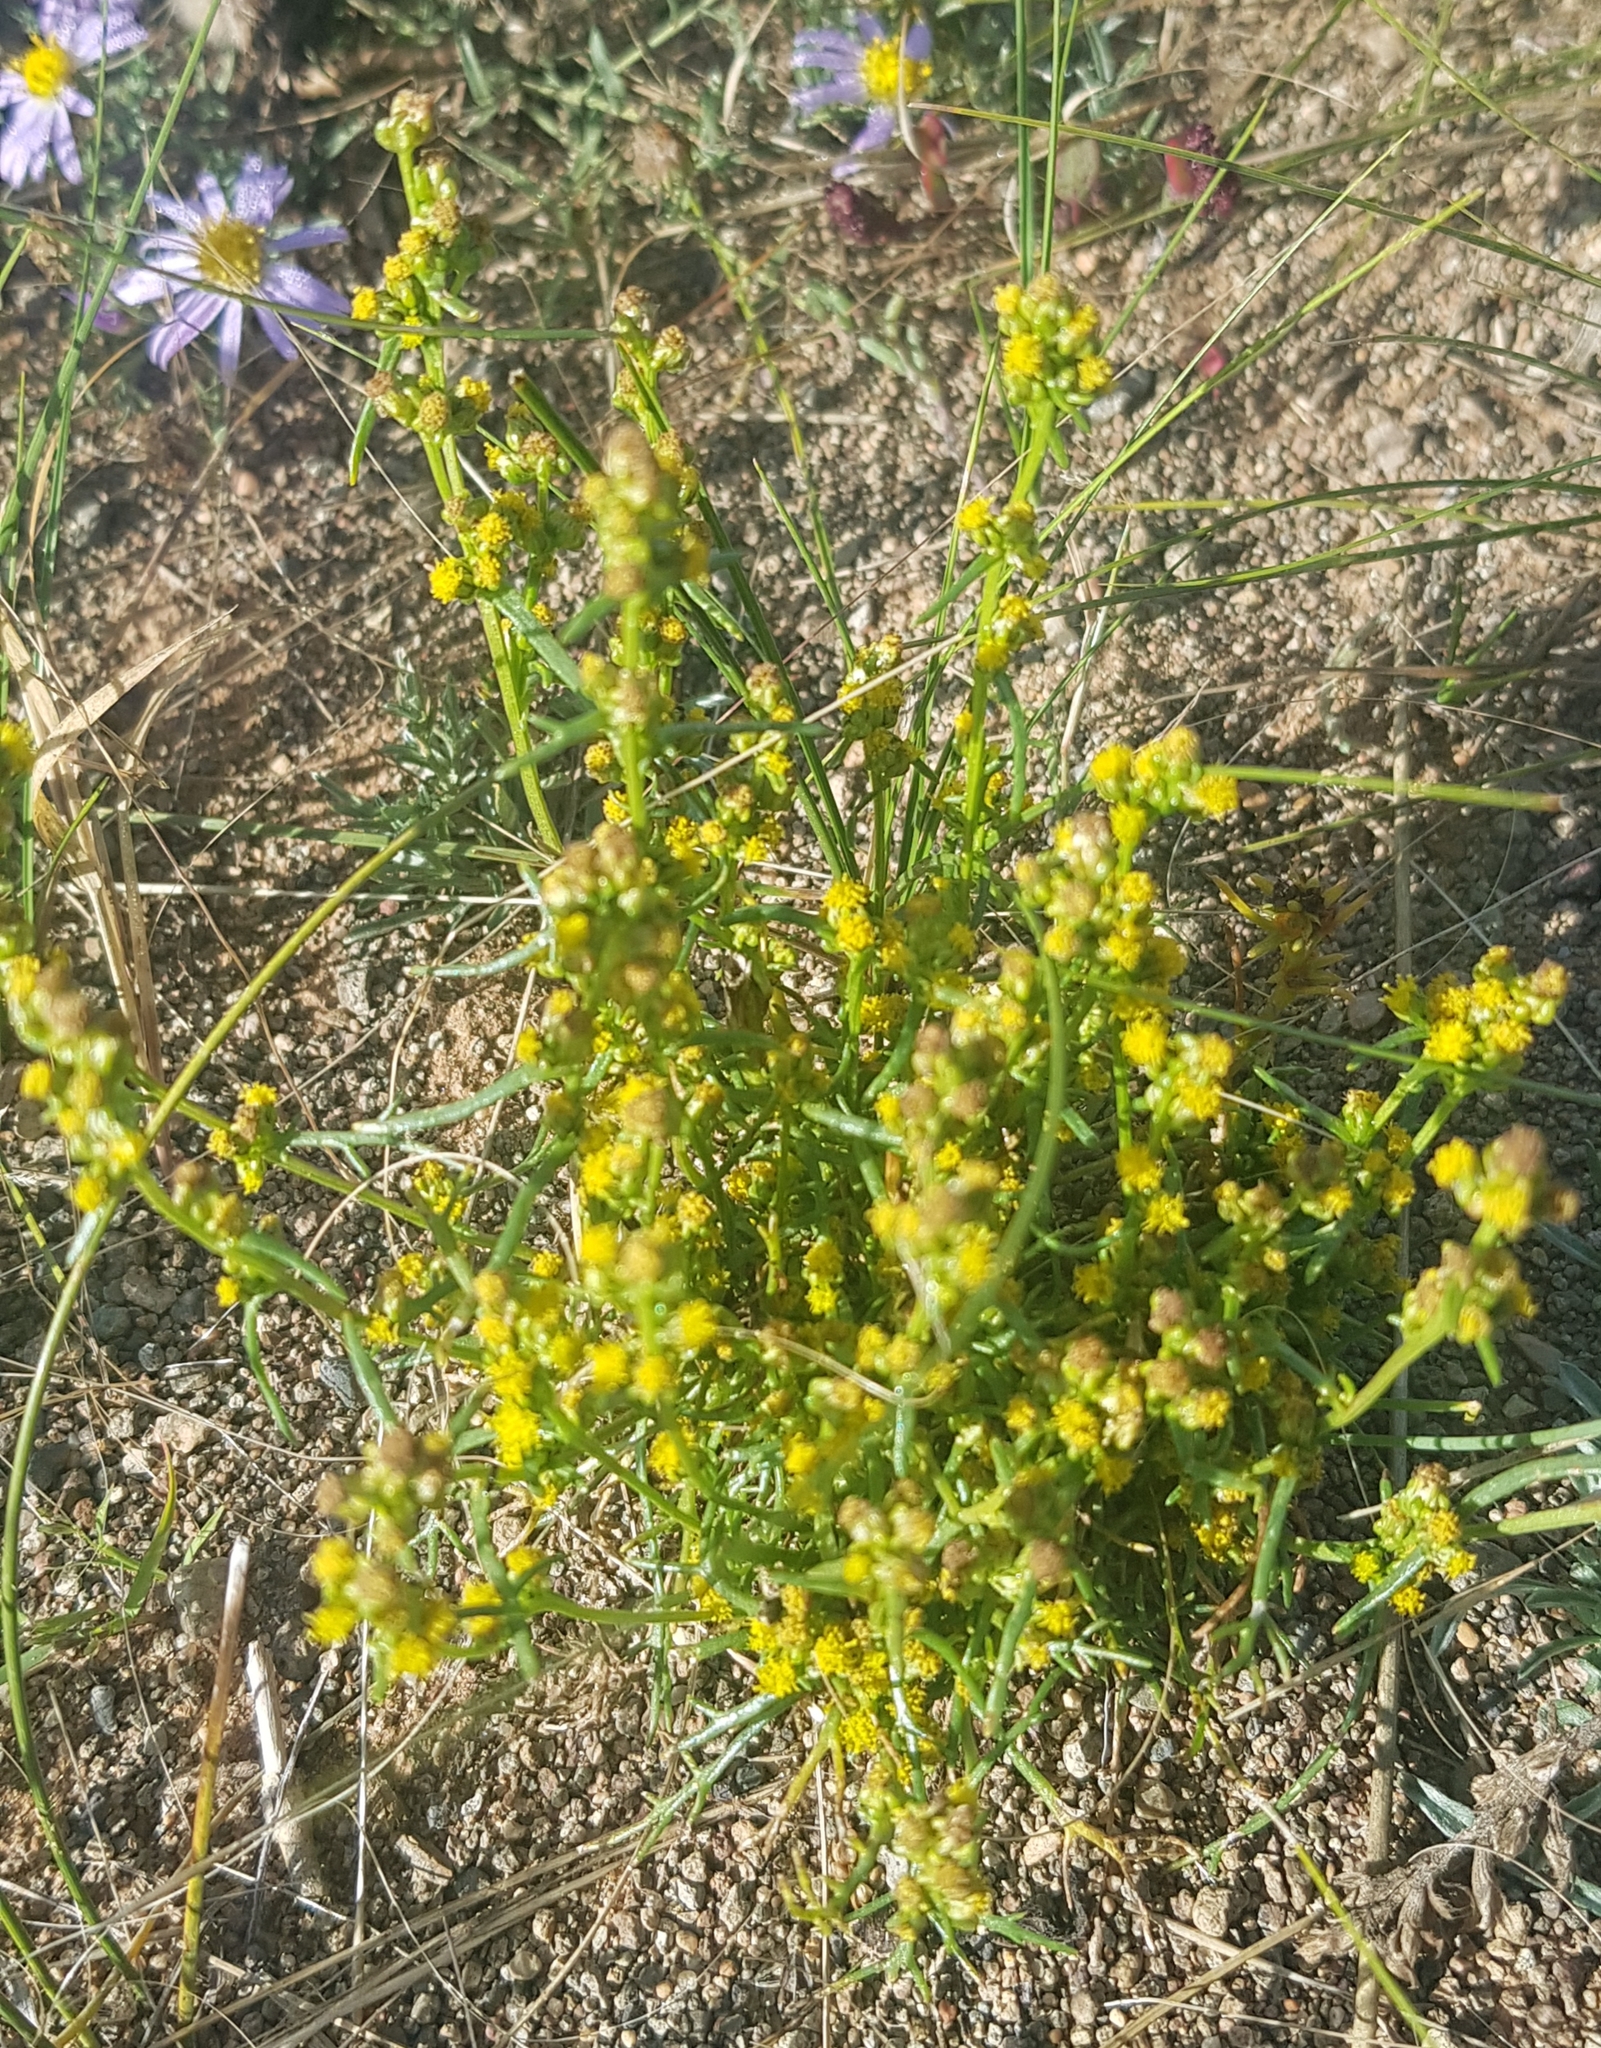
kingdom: Plantae
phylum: Tracheophyta
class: Magnoliopsida
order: Asterales
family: Asteraceae
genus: Artemisia
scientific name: Artemisia palustris
